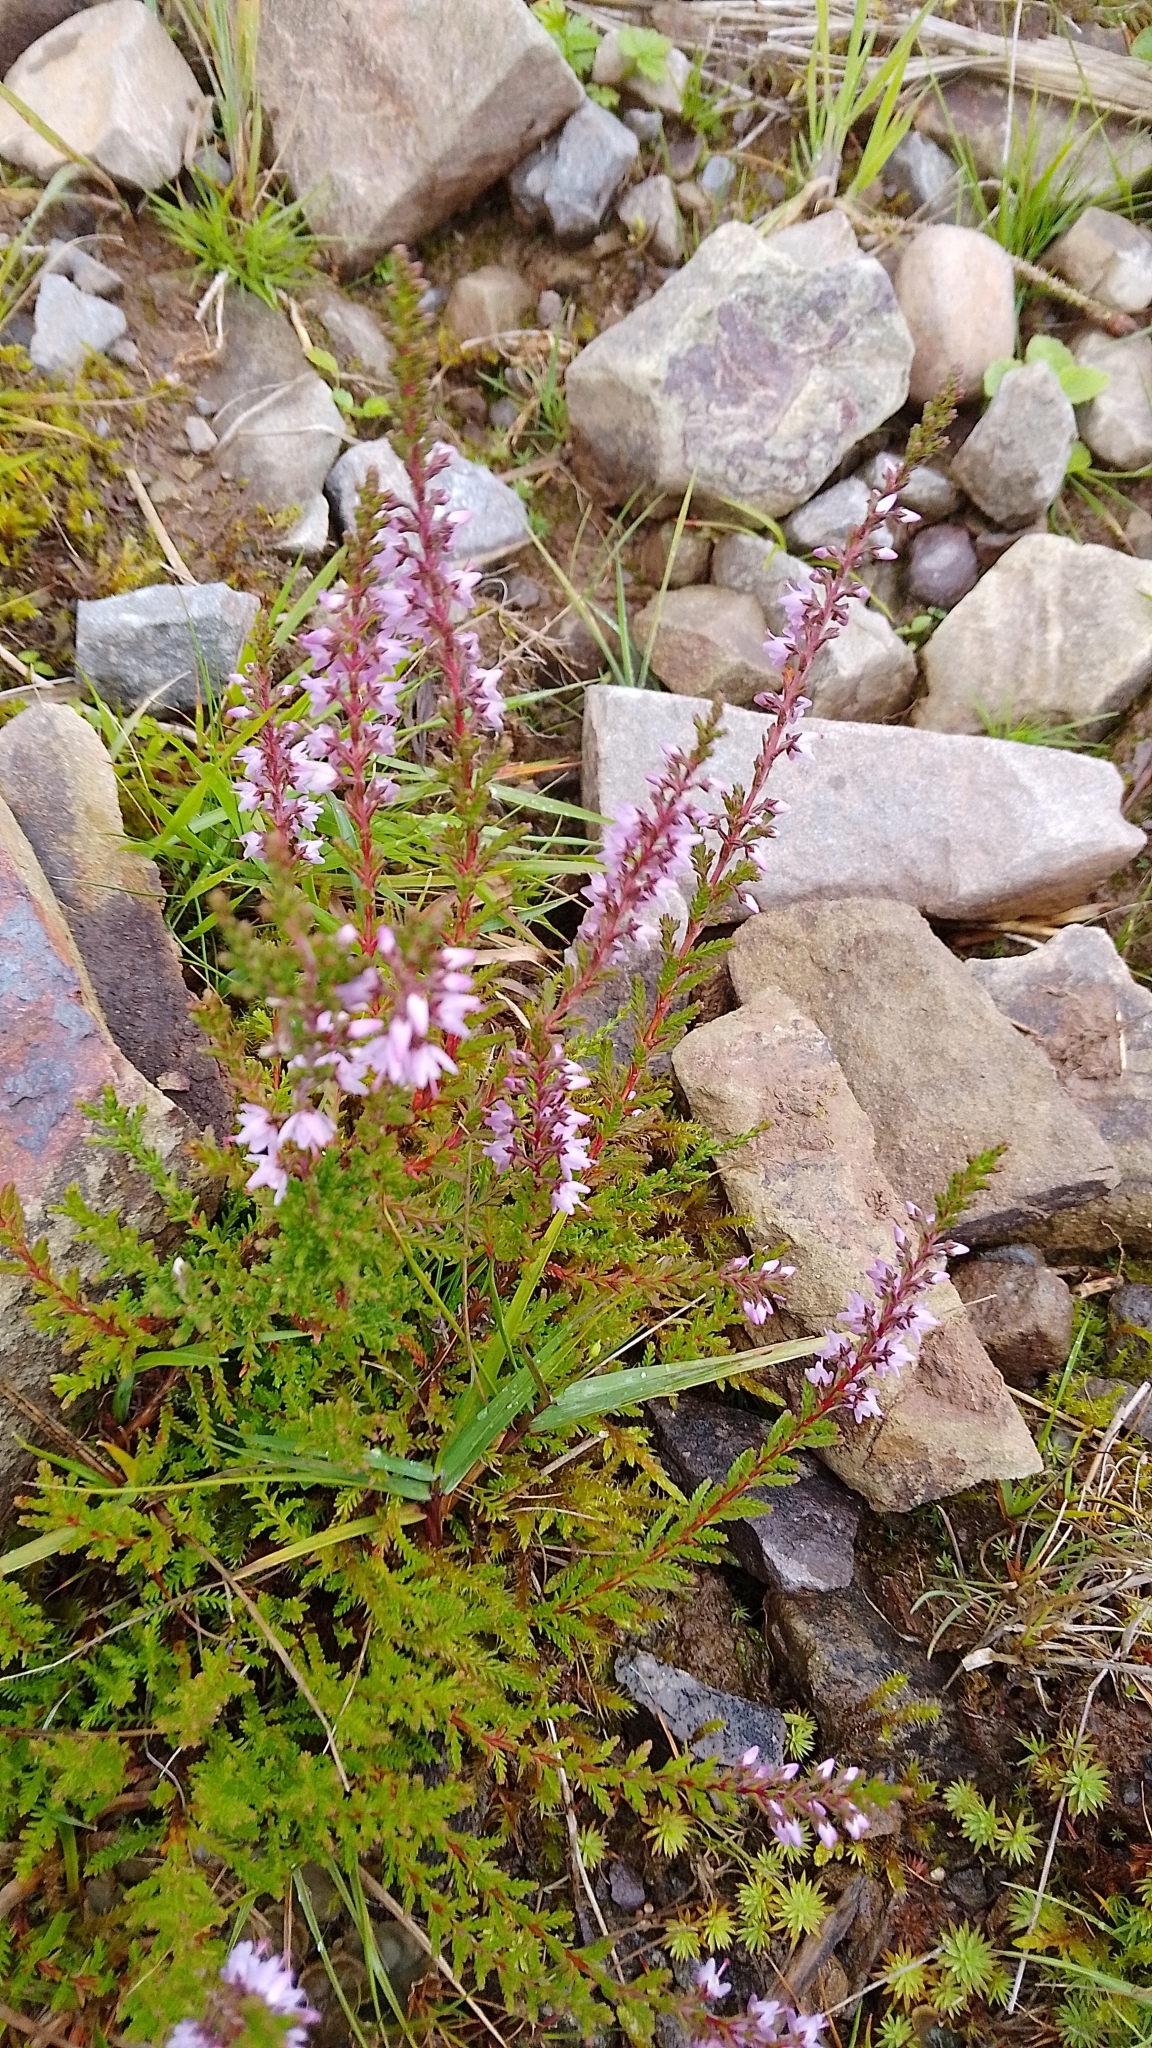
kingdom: Plantae
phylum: Tracheophyta
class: Magnoliopsida
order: Ericales
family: Ericaceae
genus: Calluna
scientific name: Calluna vulgaris
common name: Heather
